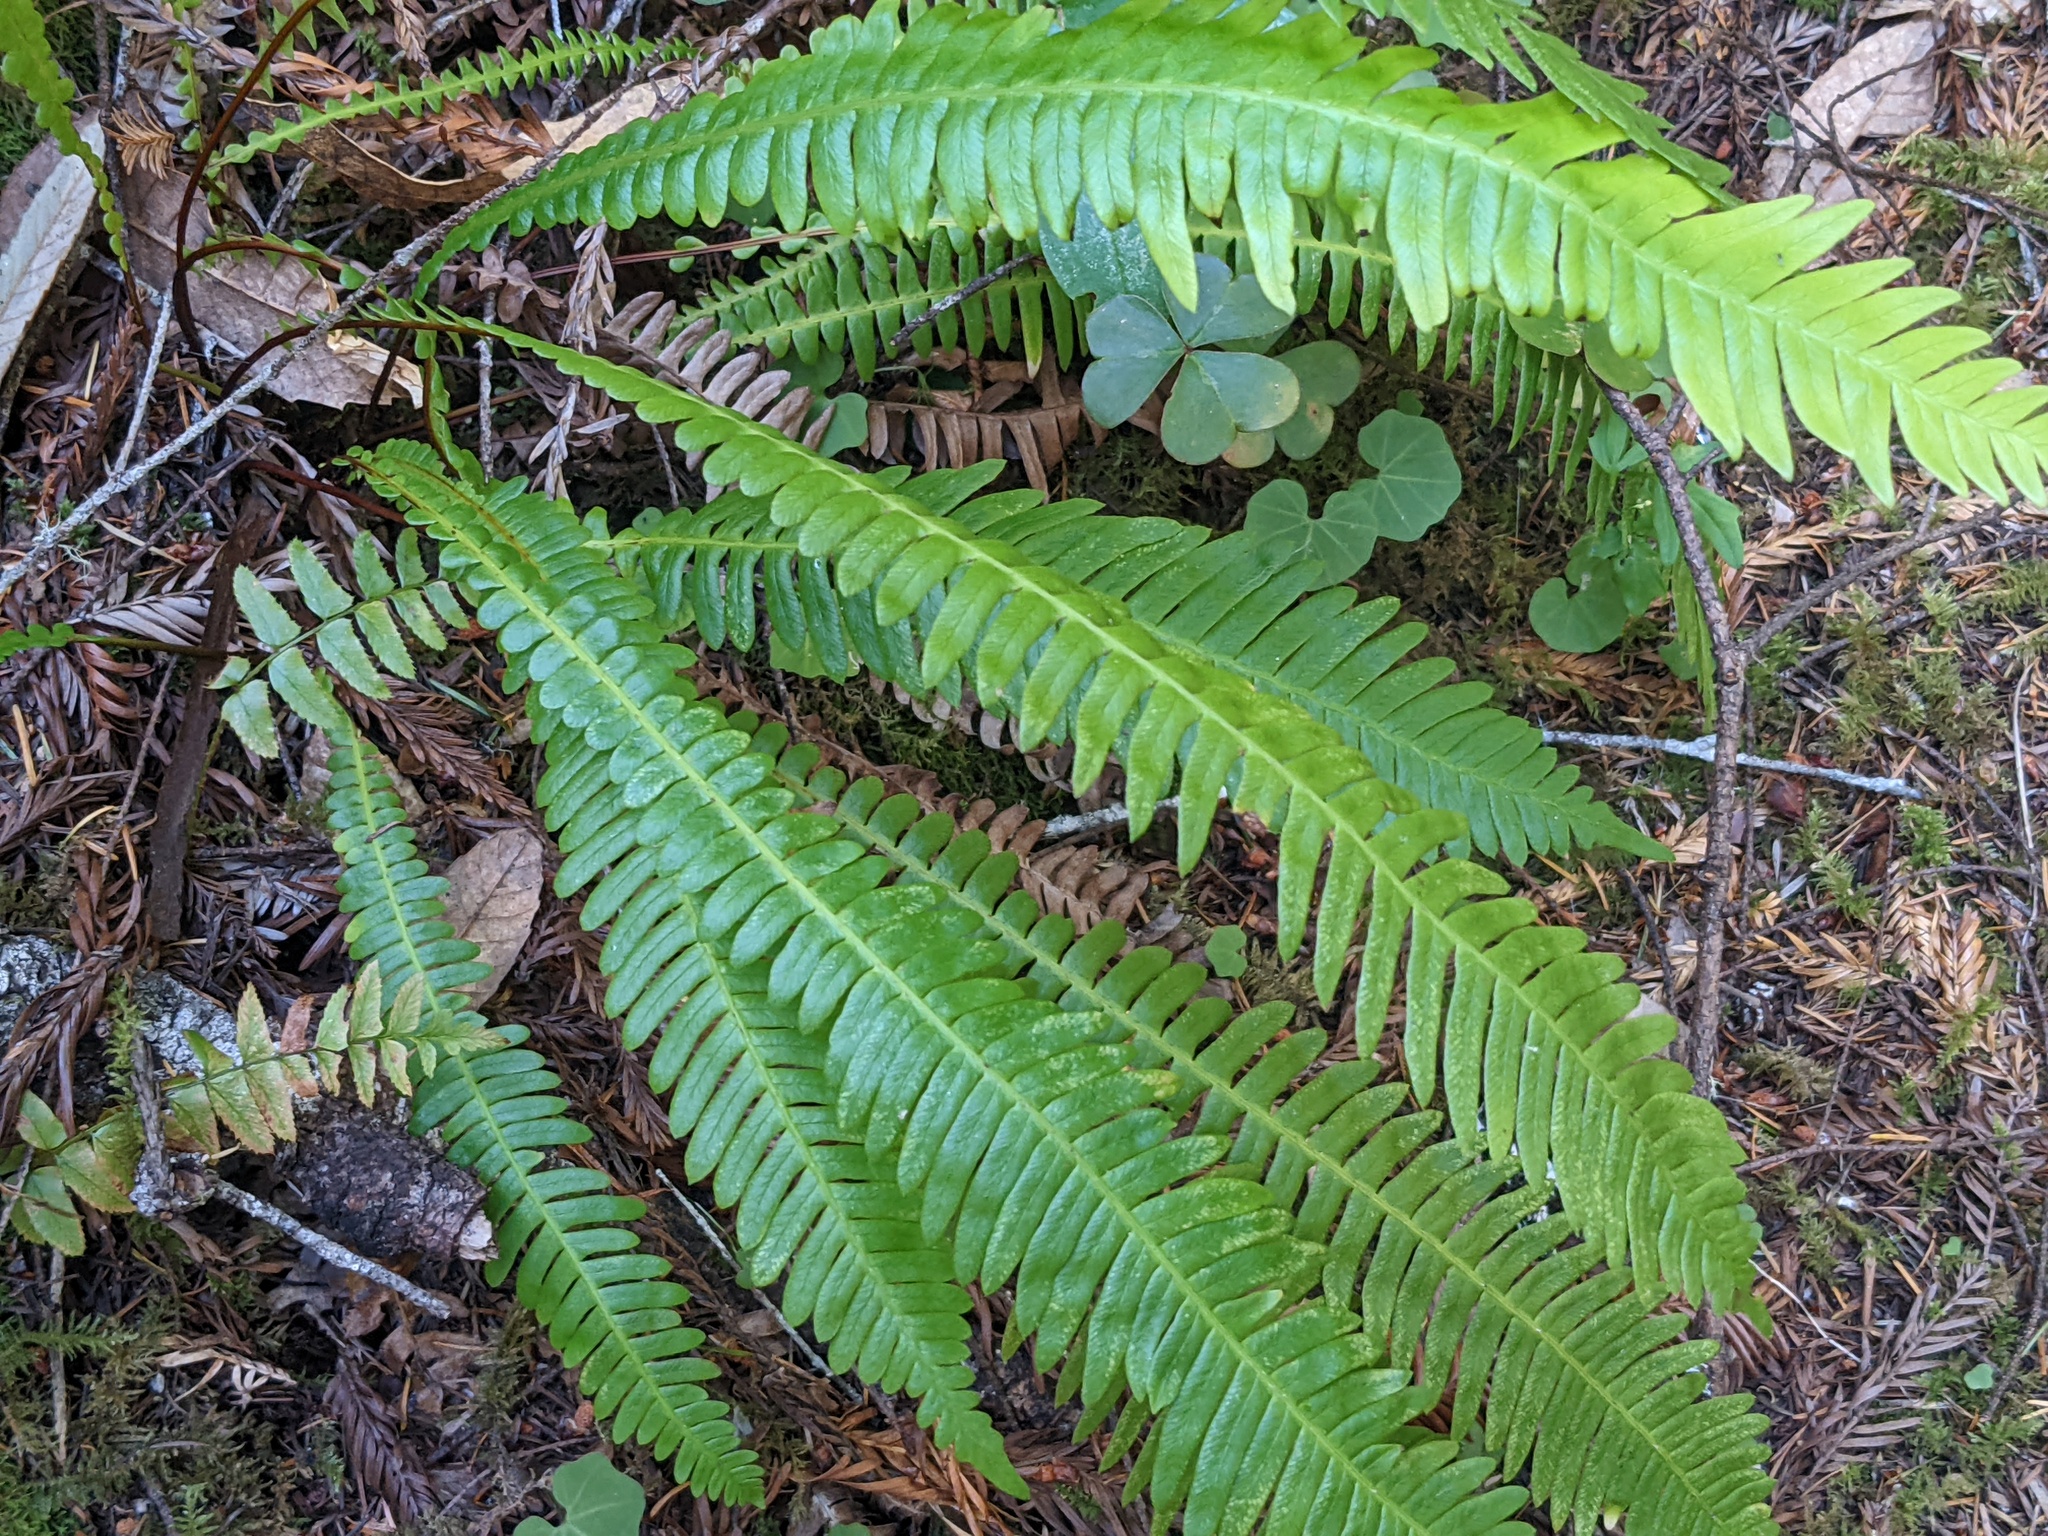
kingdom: Plantae
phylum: Tracheophyta
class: Polypodiopsida
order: Polypodiales
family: Blechnaceae
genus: Struthiopteris
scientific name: Struthiopteris spicant
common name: Deer fern
